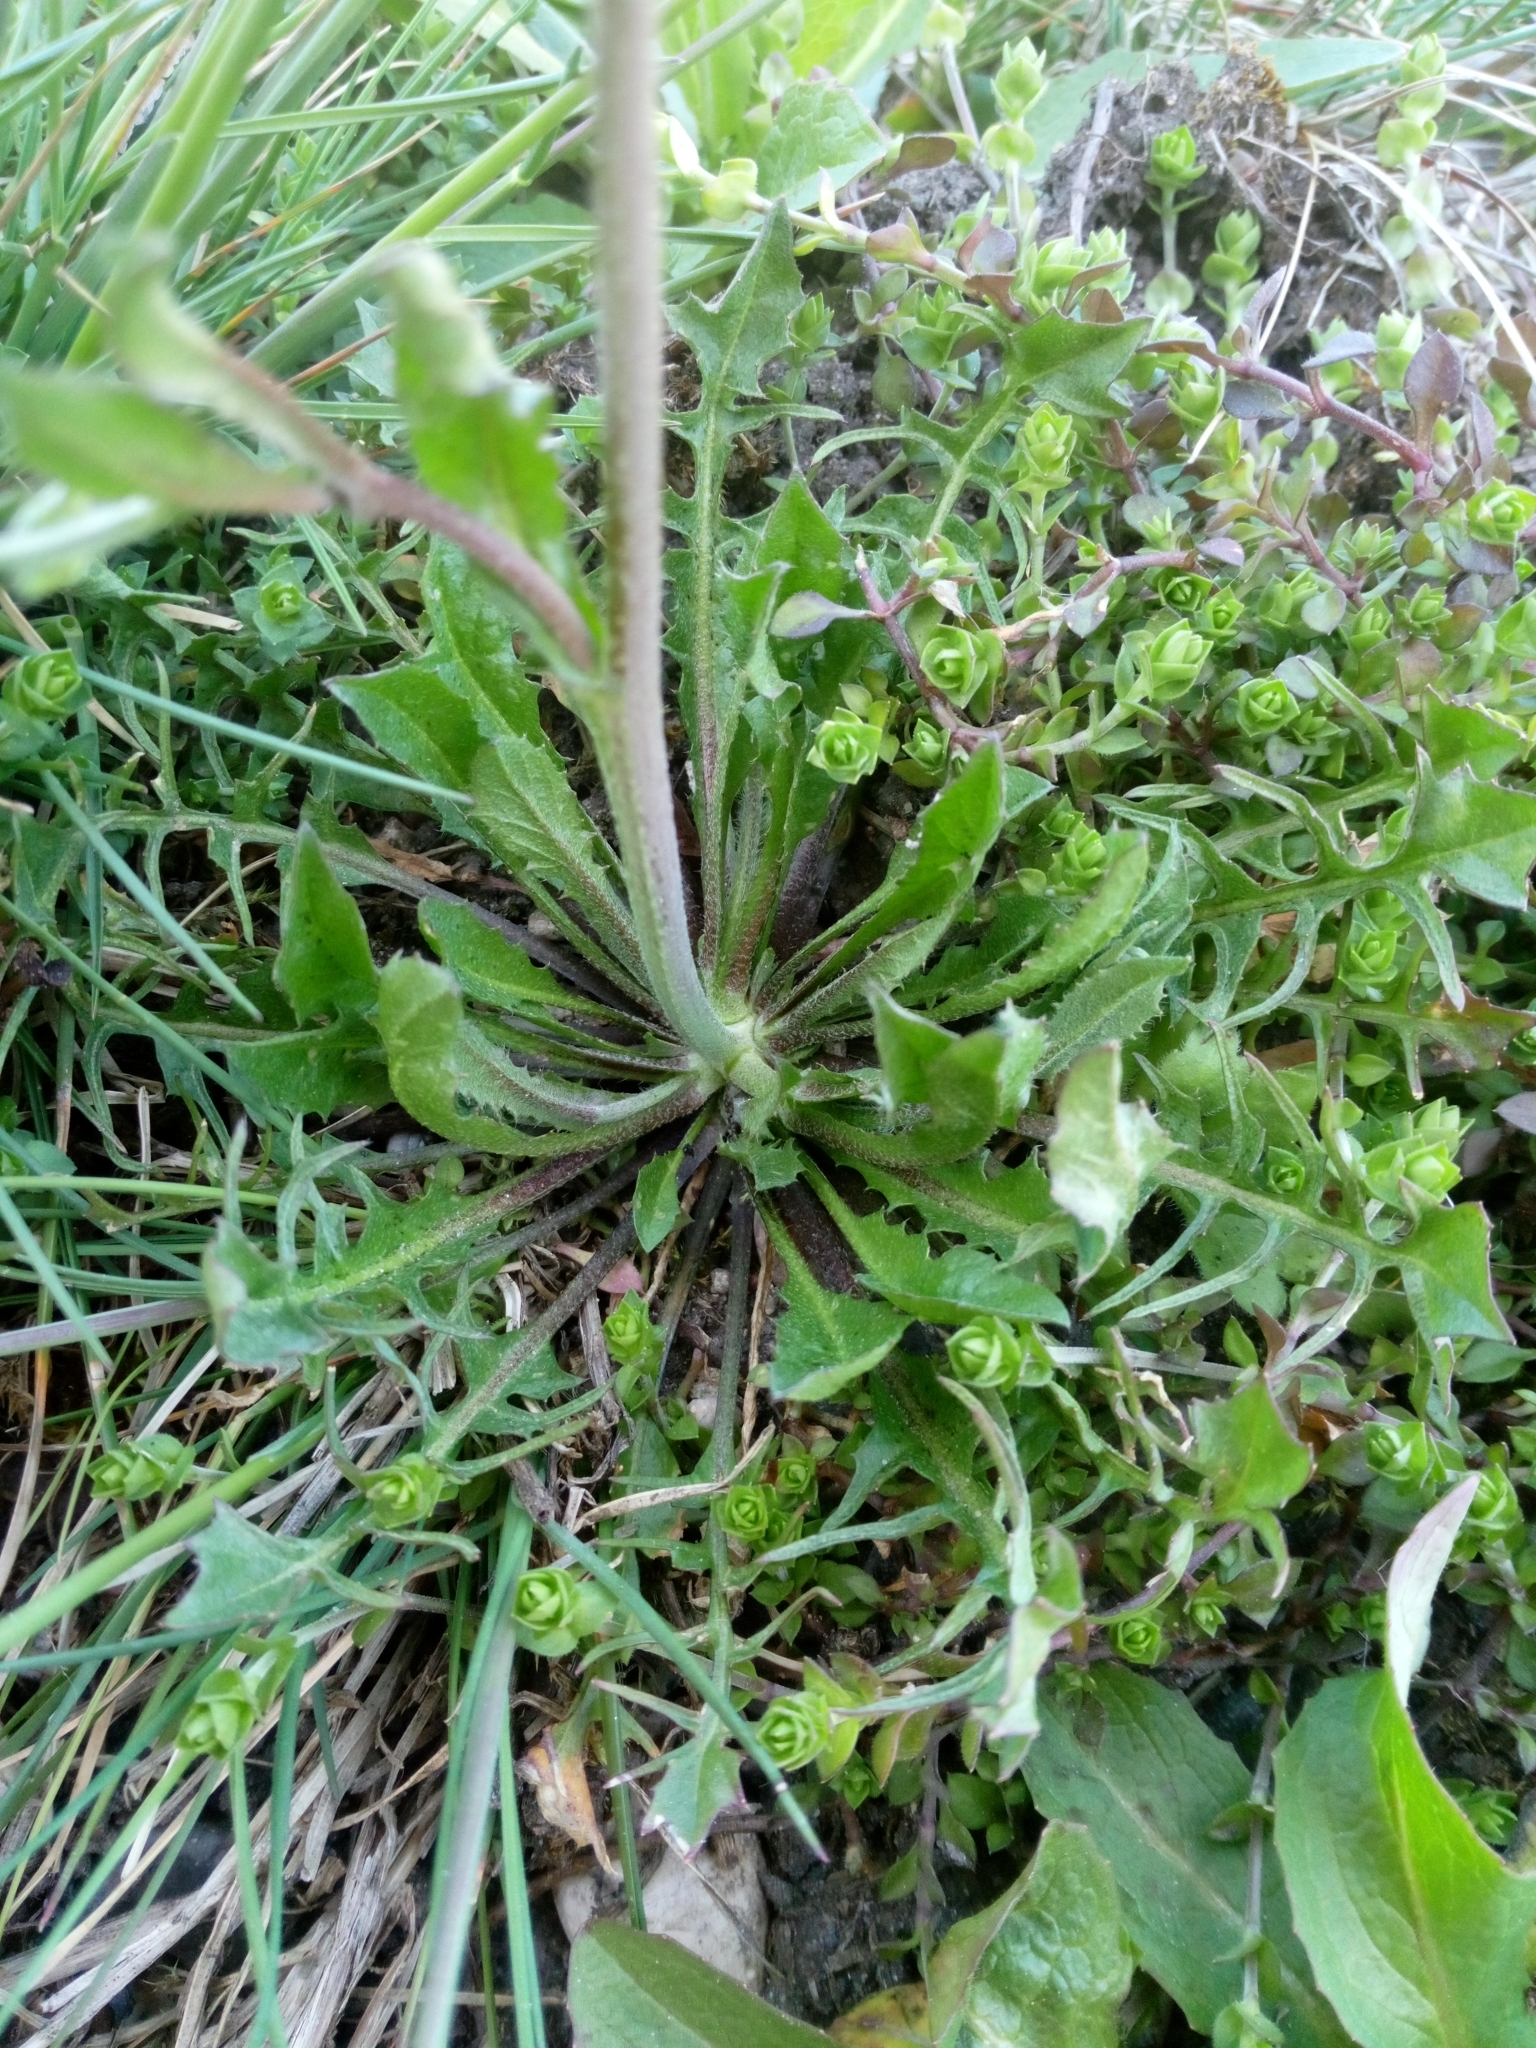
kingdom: Plantae
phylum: Tracheophyta
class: Magnoliopsida
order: Brassicales
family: Brassicaceae
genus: Capsella
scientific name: Capsella bursa-pastoris
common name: Shepherd's purse
